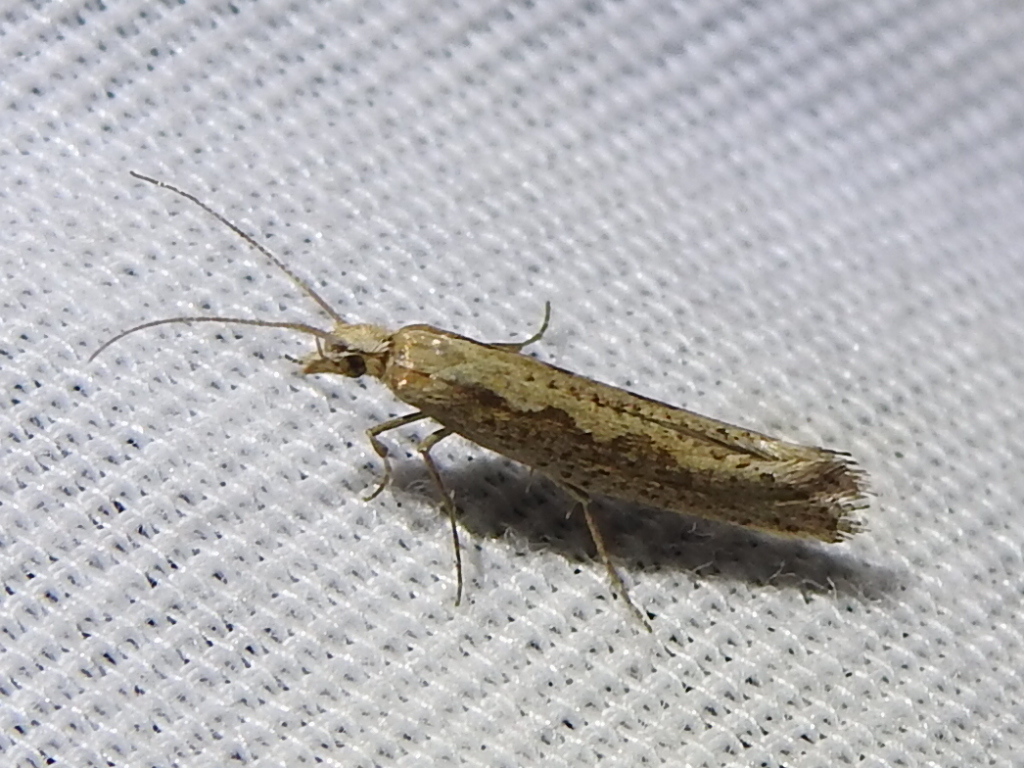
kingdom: Animalia
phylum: Arthropoda
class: Insecta
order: Lepidoptera
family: Plutellidae
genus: Plutella
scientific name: Plutella xylostella
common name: Diamond-back moth
